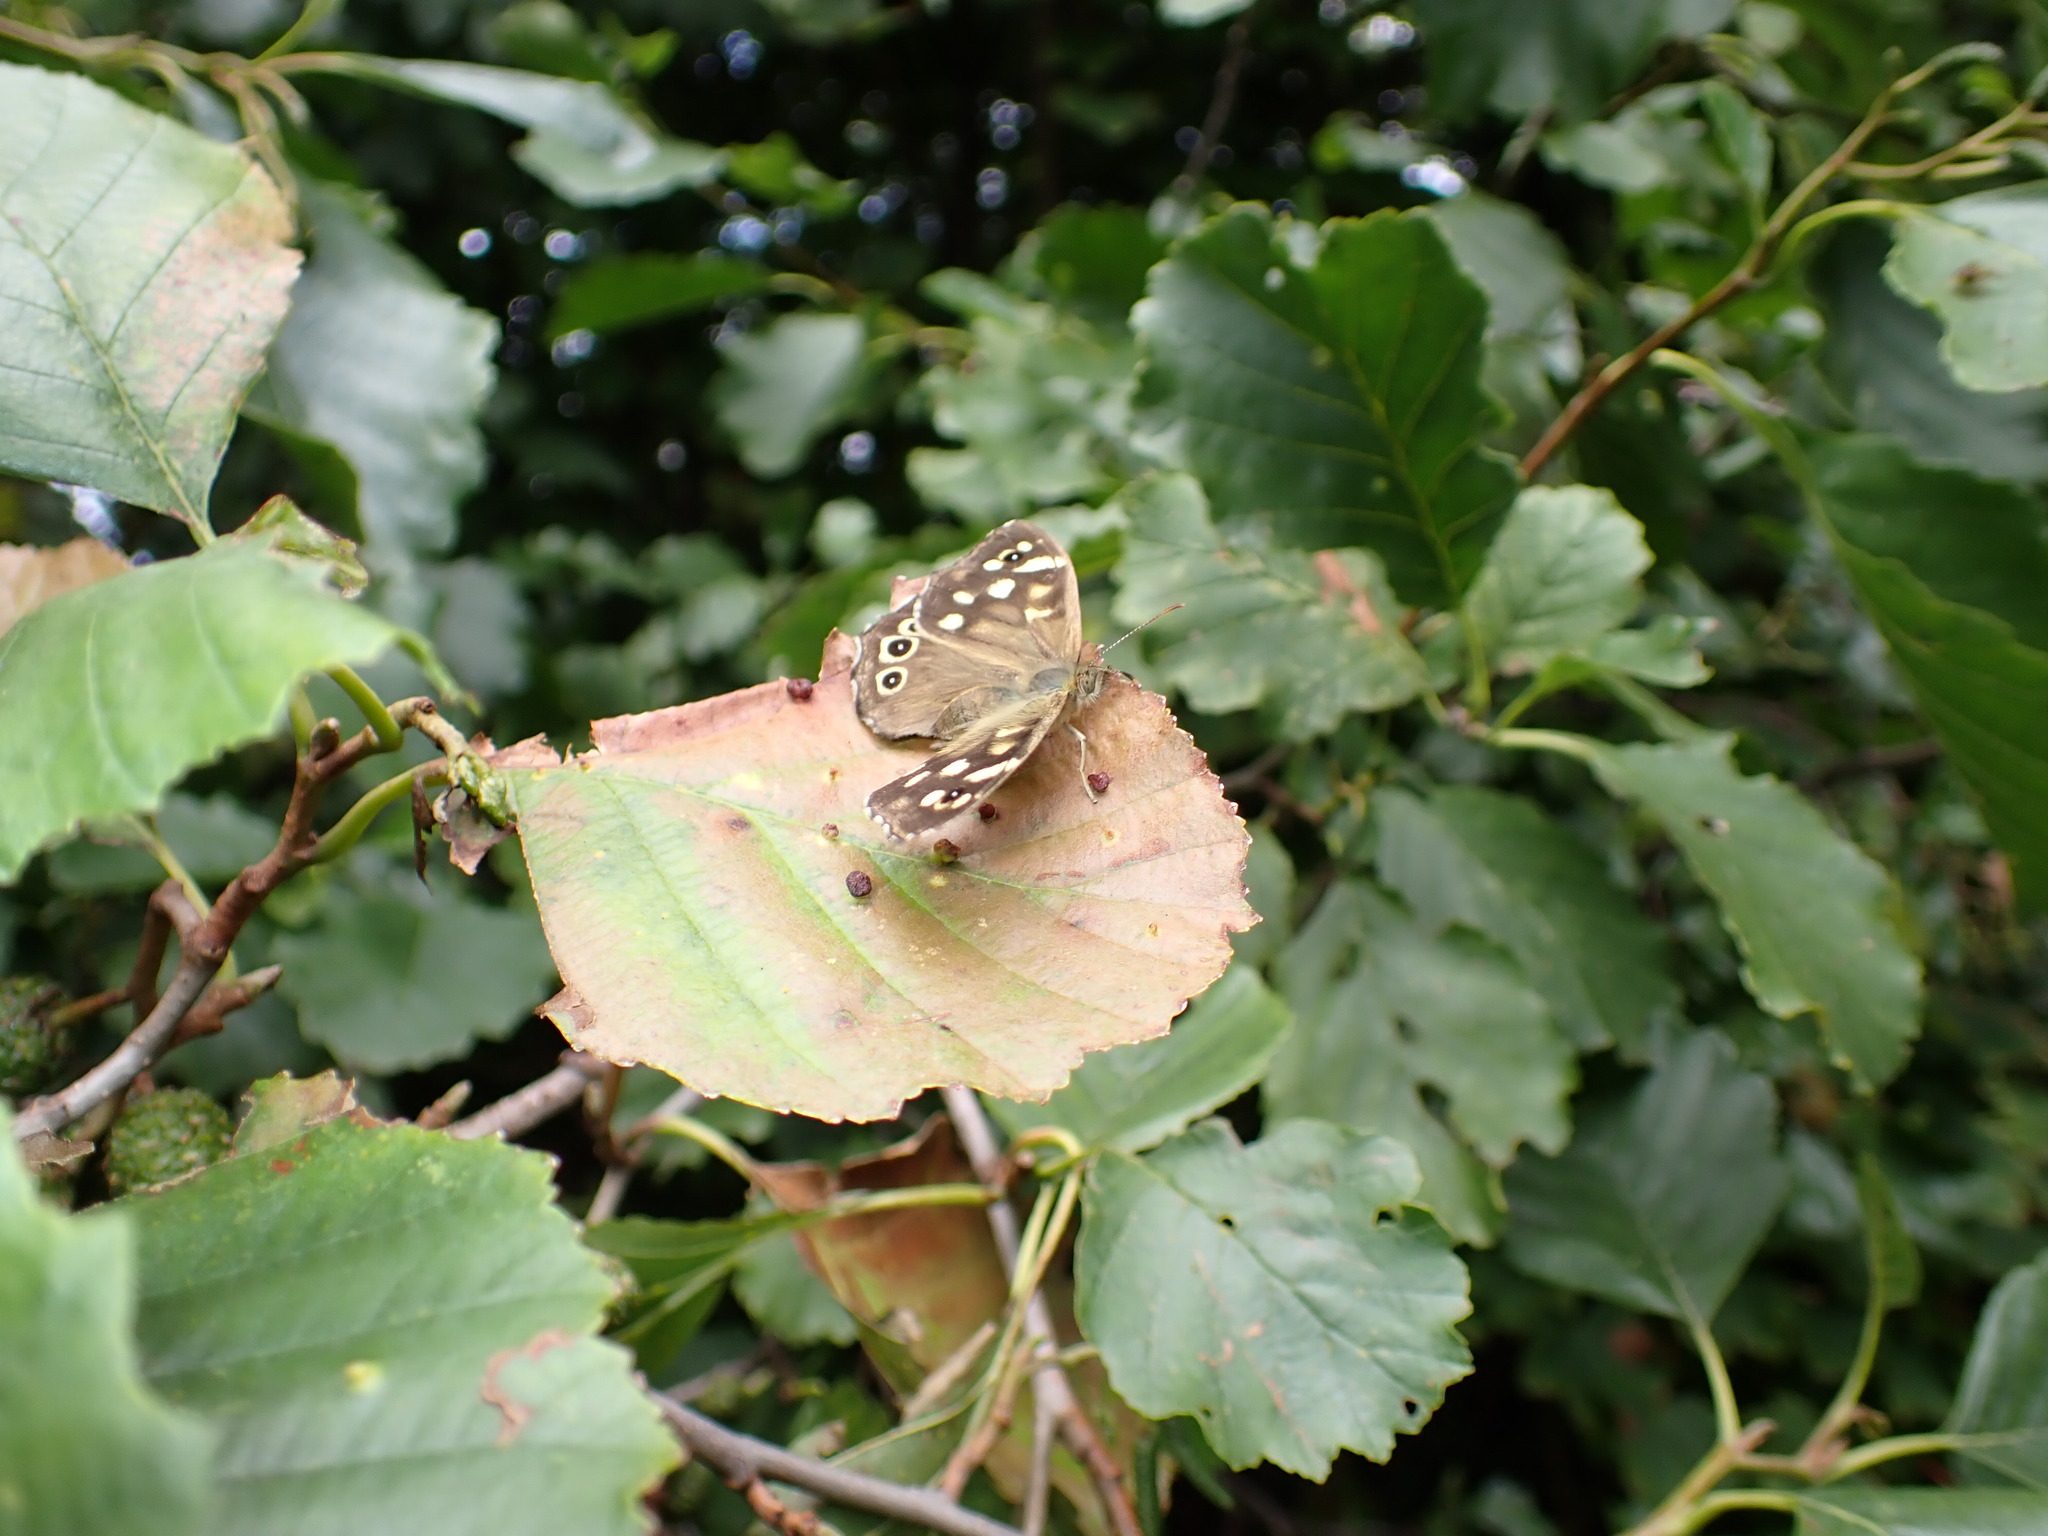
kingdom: Animalia
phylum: Arthropoda
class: Insecta
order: Lepidoptera
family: Nymphalidae
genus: Pararge
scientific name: Pararge aegeria
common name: Speckled wood
